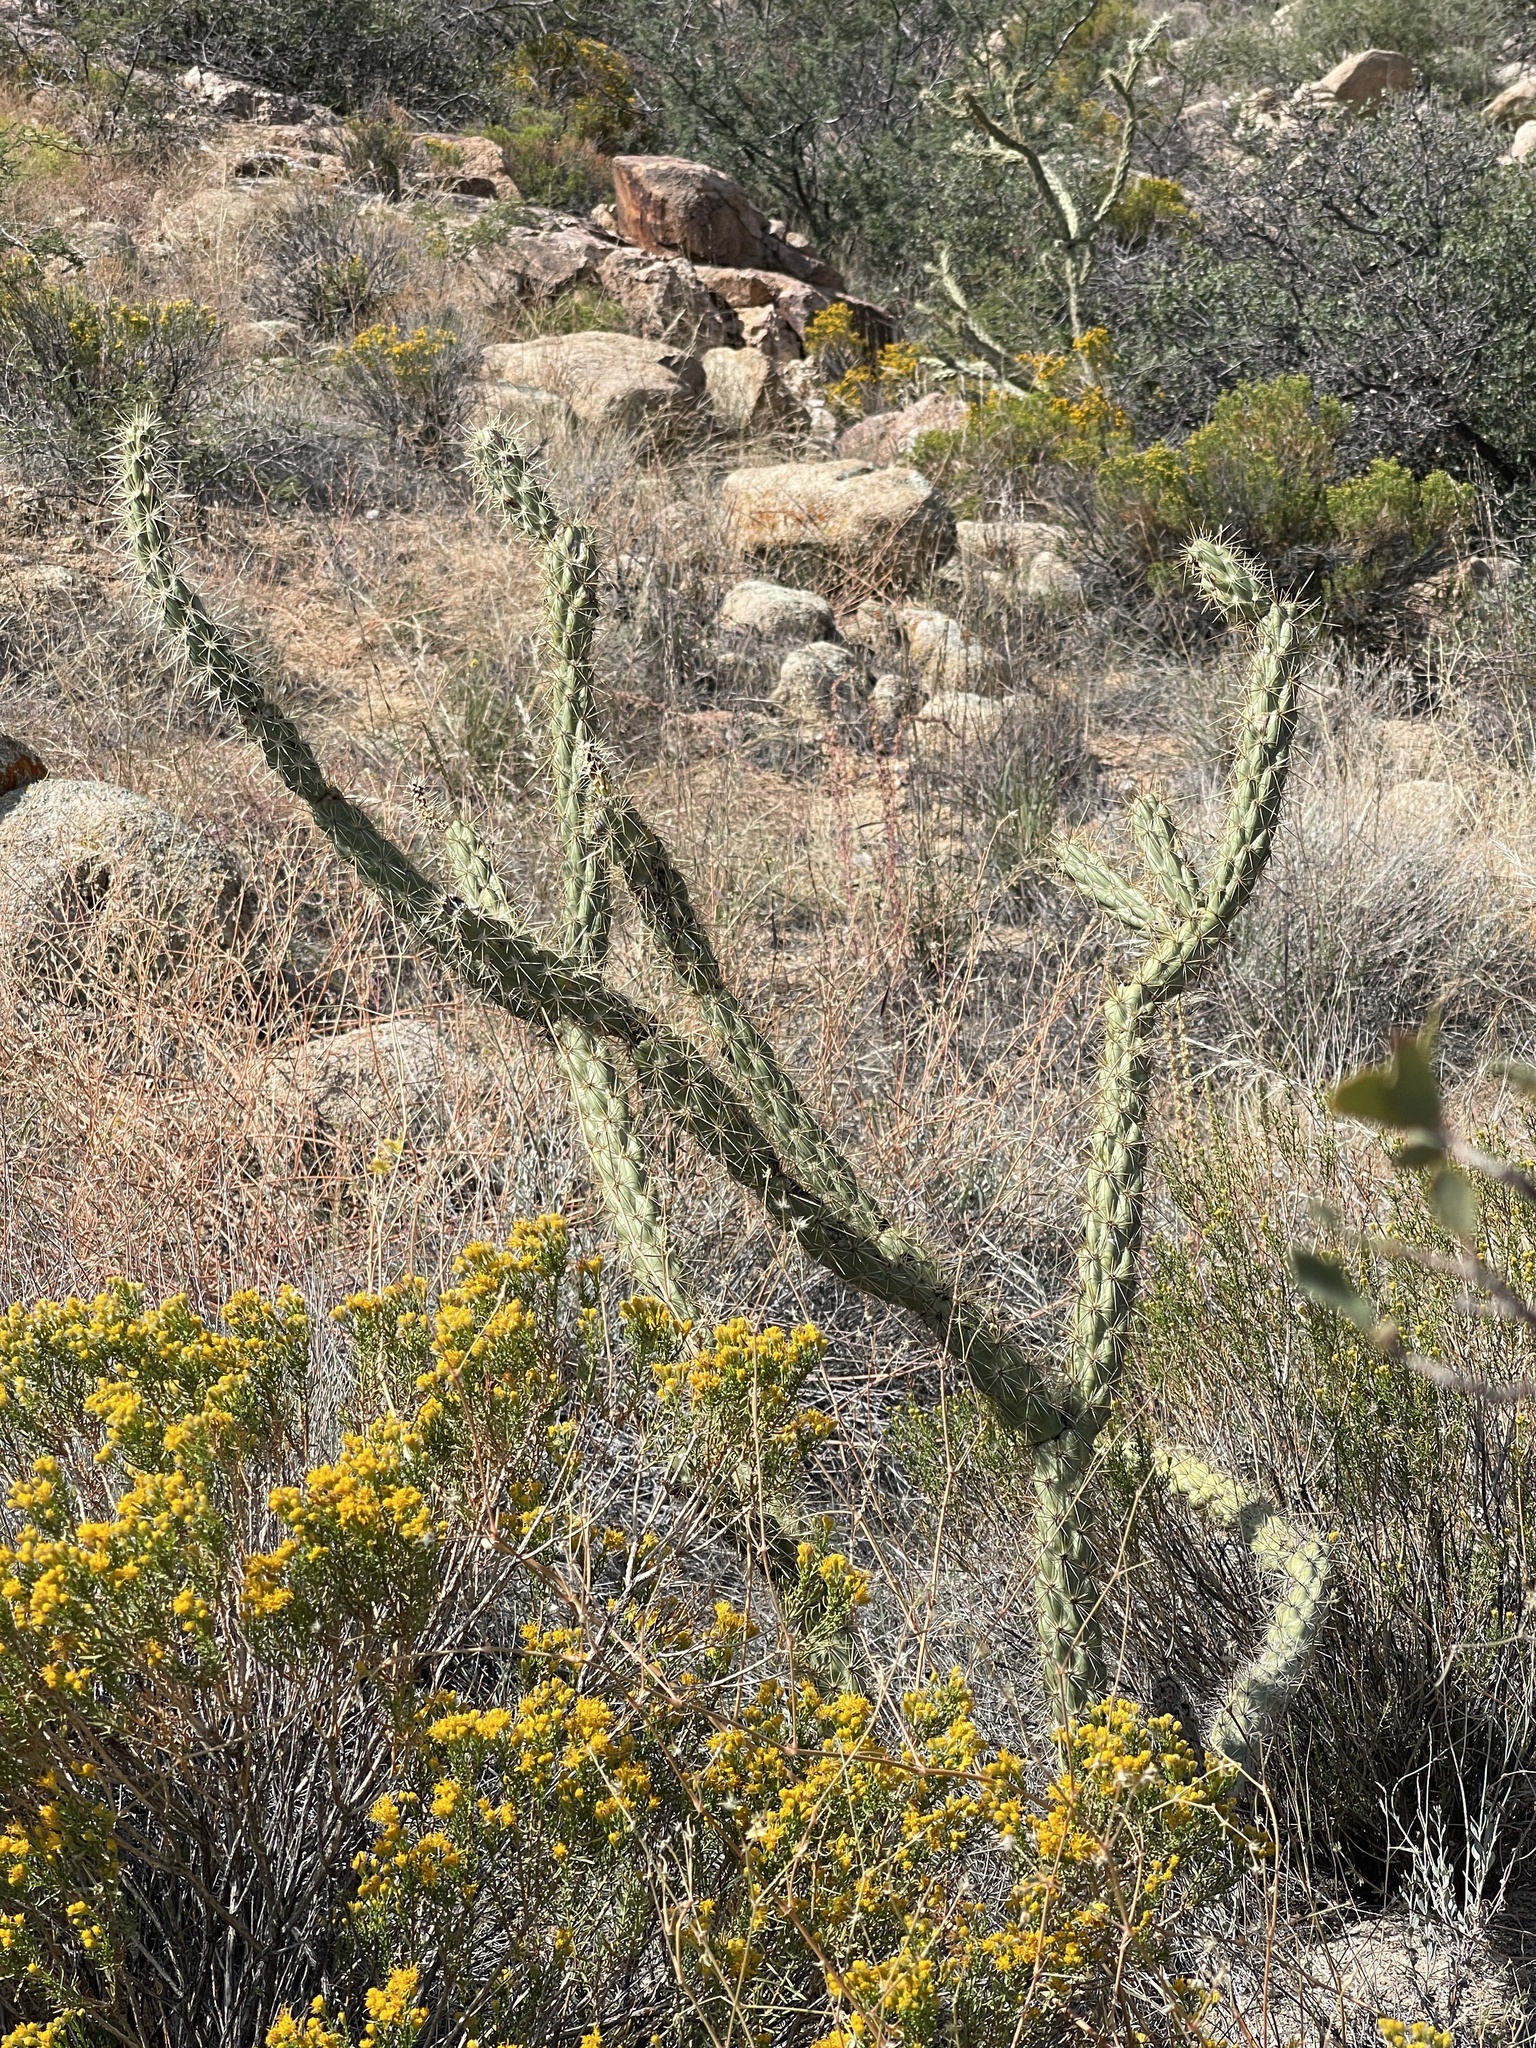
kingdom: Plantae
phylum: Tracheophyta
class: Magnoliopsida
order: Caryophyllales
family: Cactaceae
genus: Cylindropuntia
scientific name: Cylindropuntia acanthocarpa
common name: Buckhorn cholla
